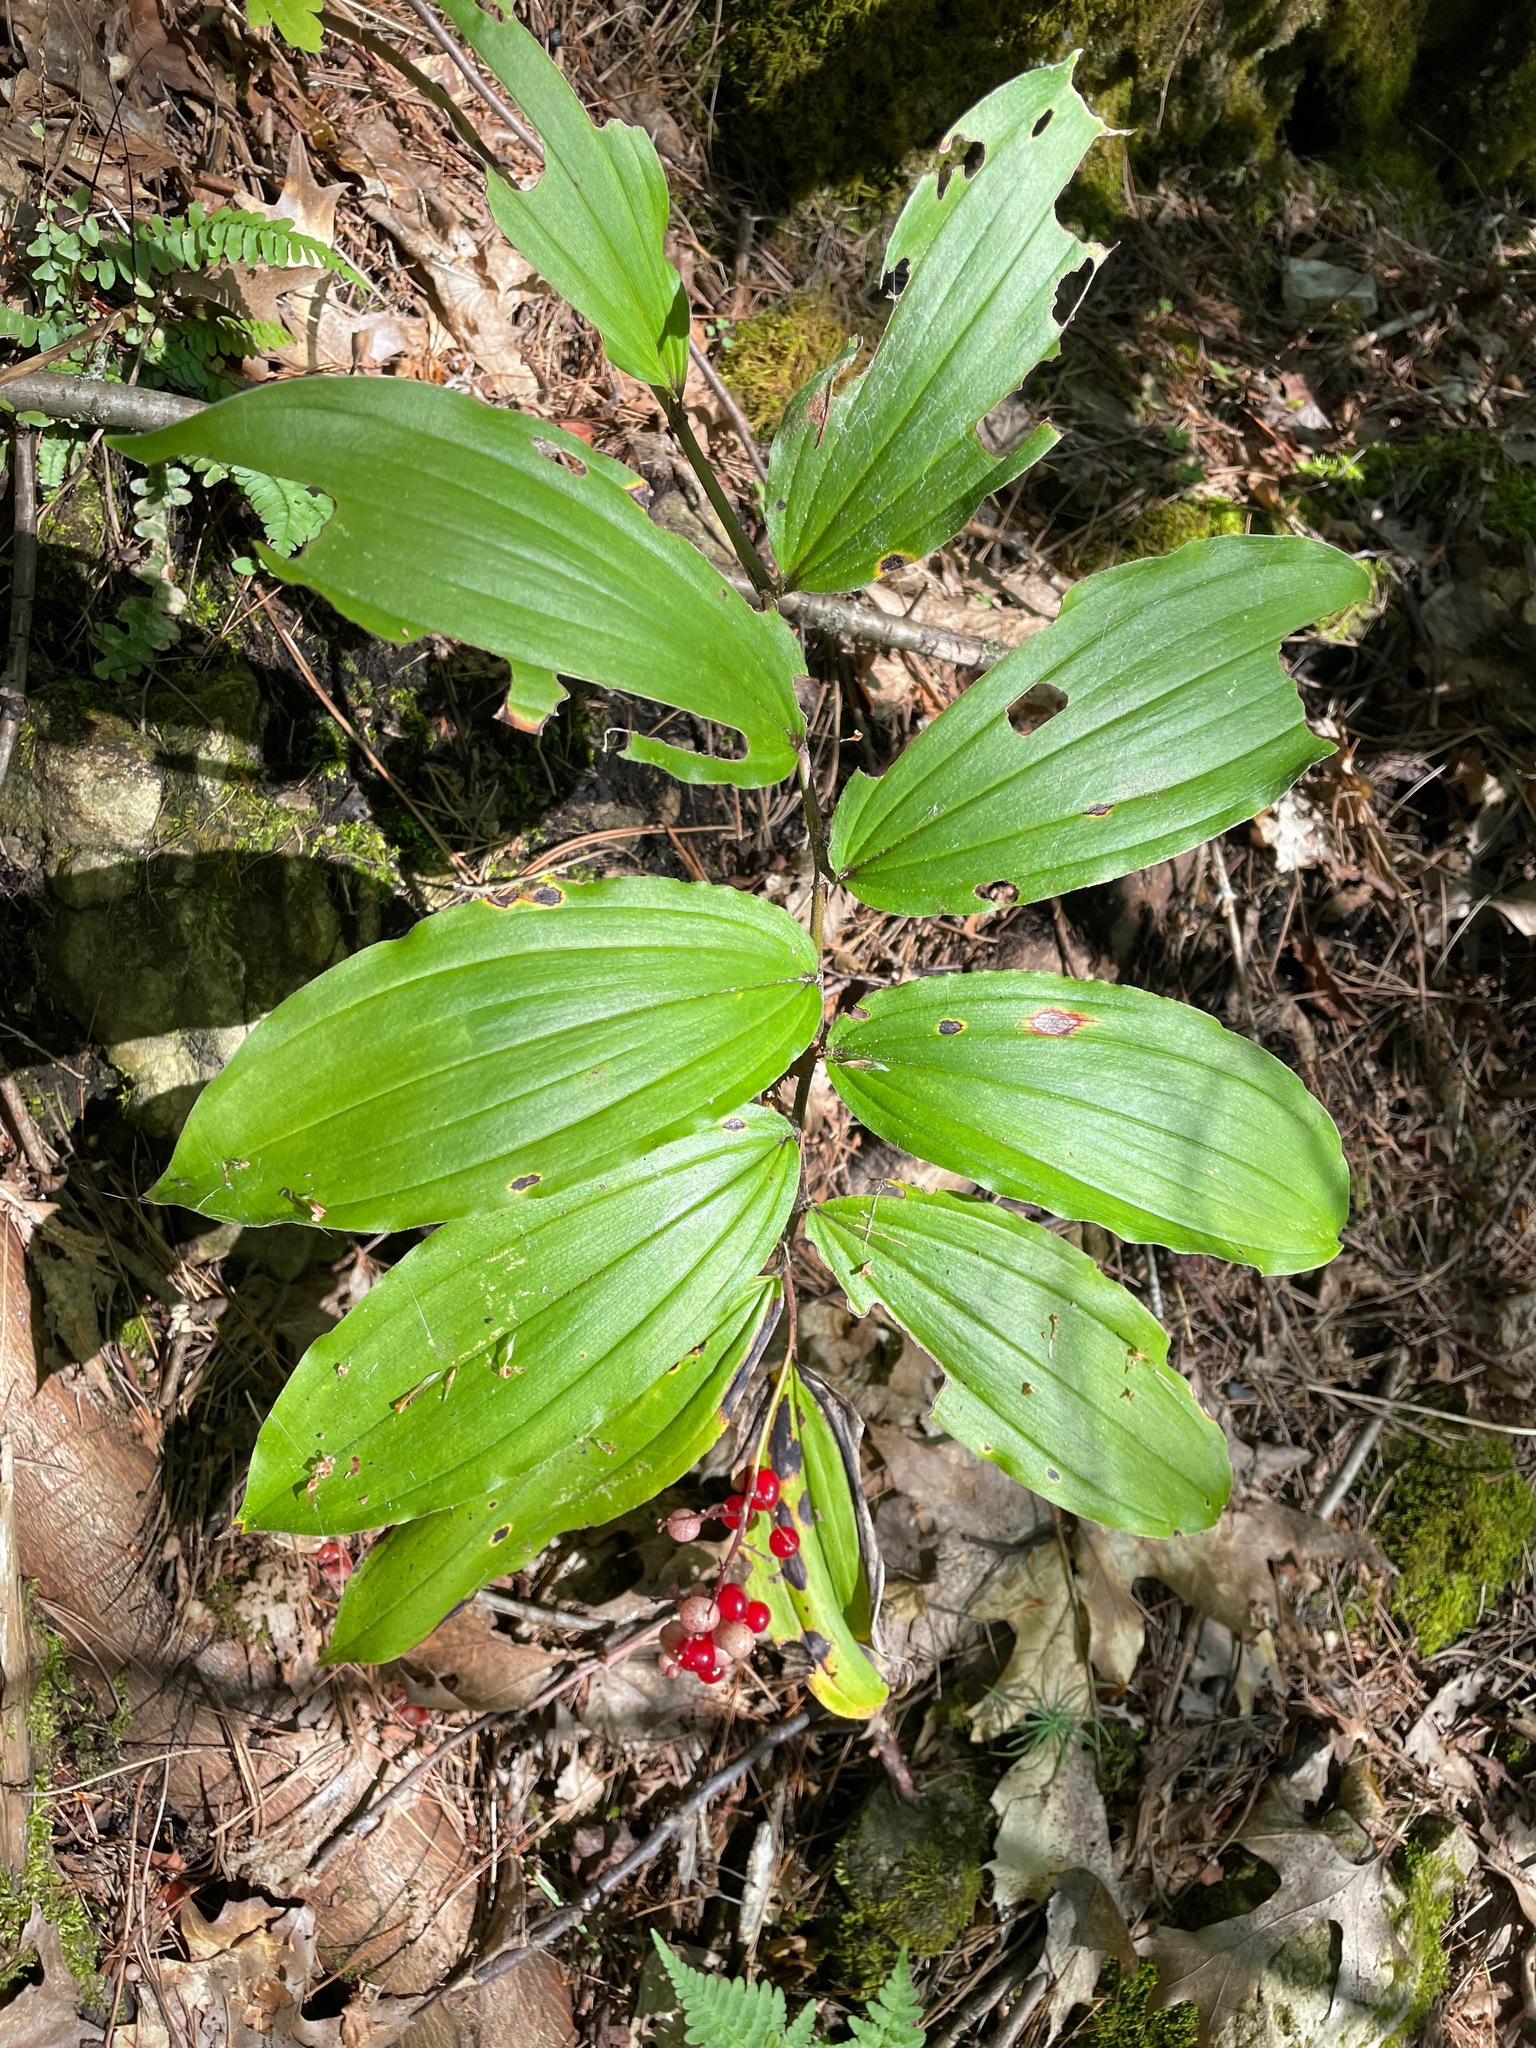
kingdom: Plantae
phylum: Tracheophyta
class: Liliopsida
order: Asparagales
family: Asparagaceae
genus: Maianthemum
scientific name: Maianthemum racemosum
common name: False spikenard
